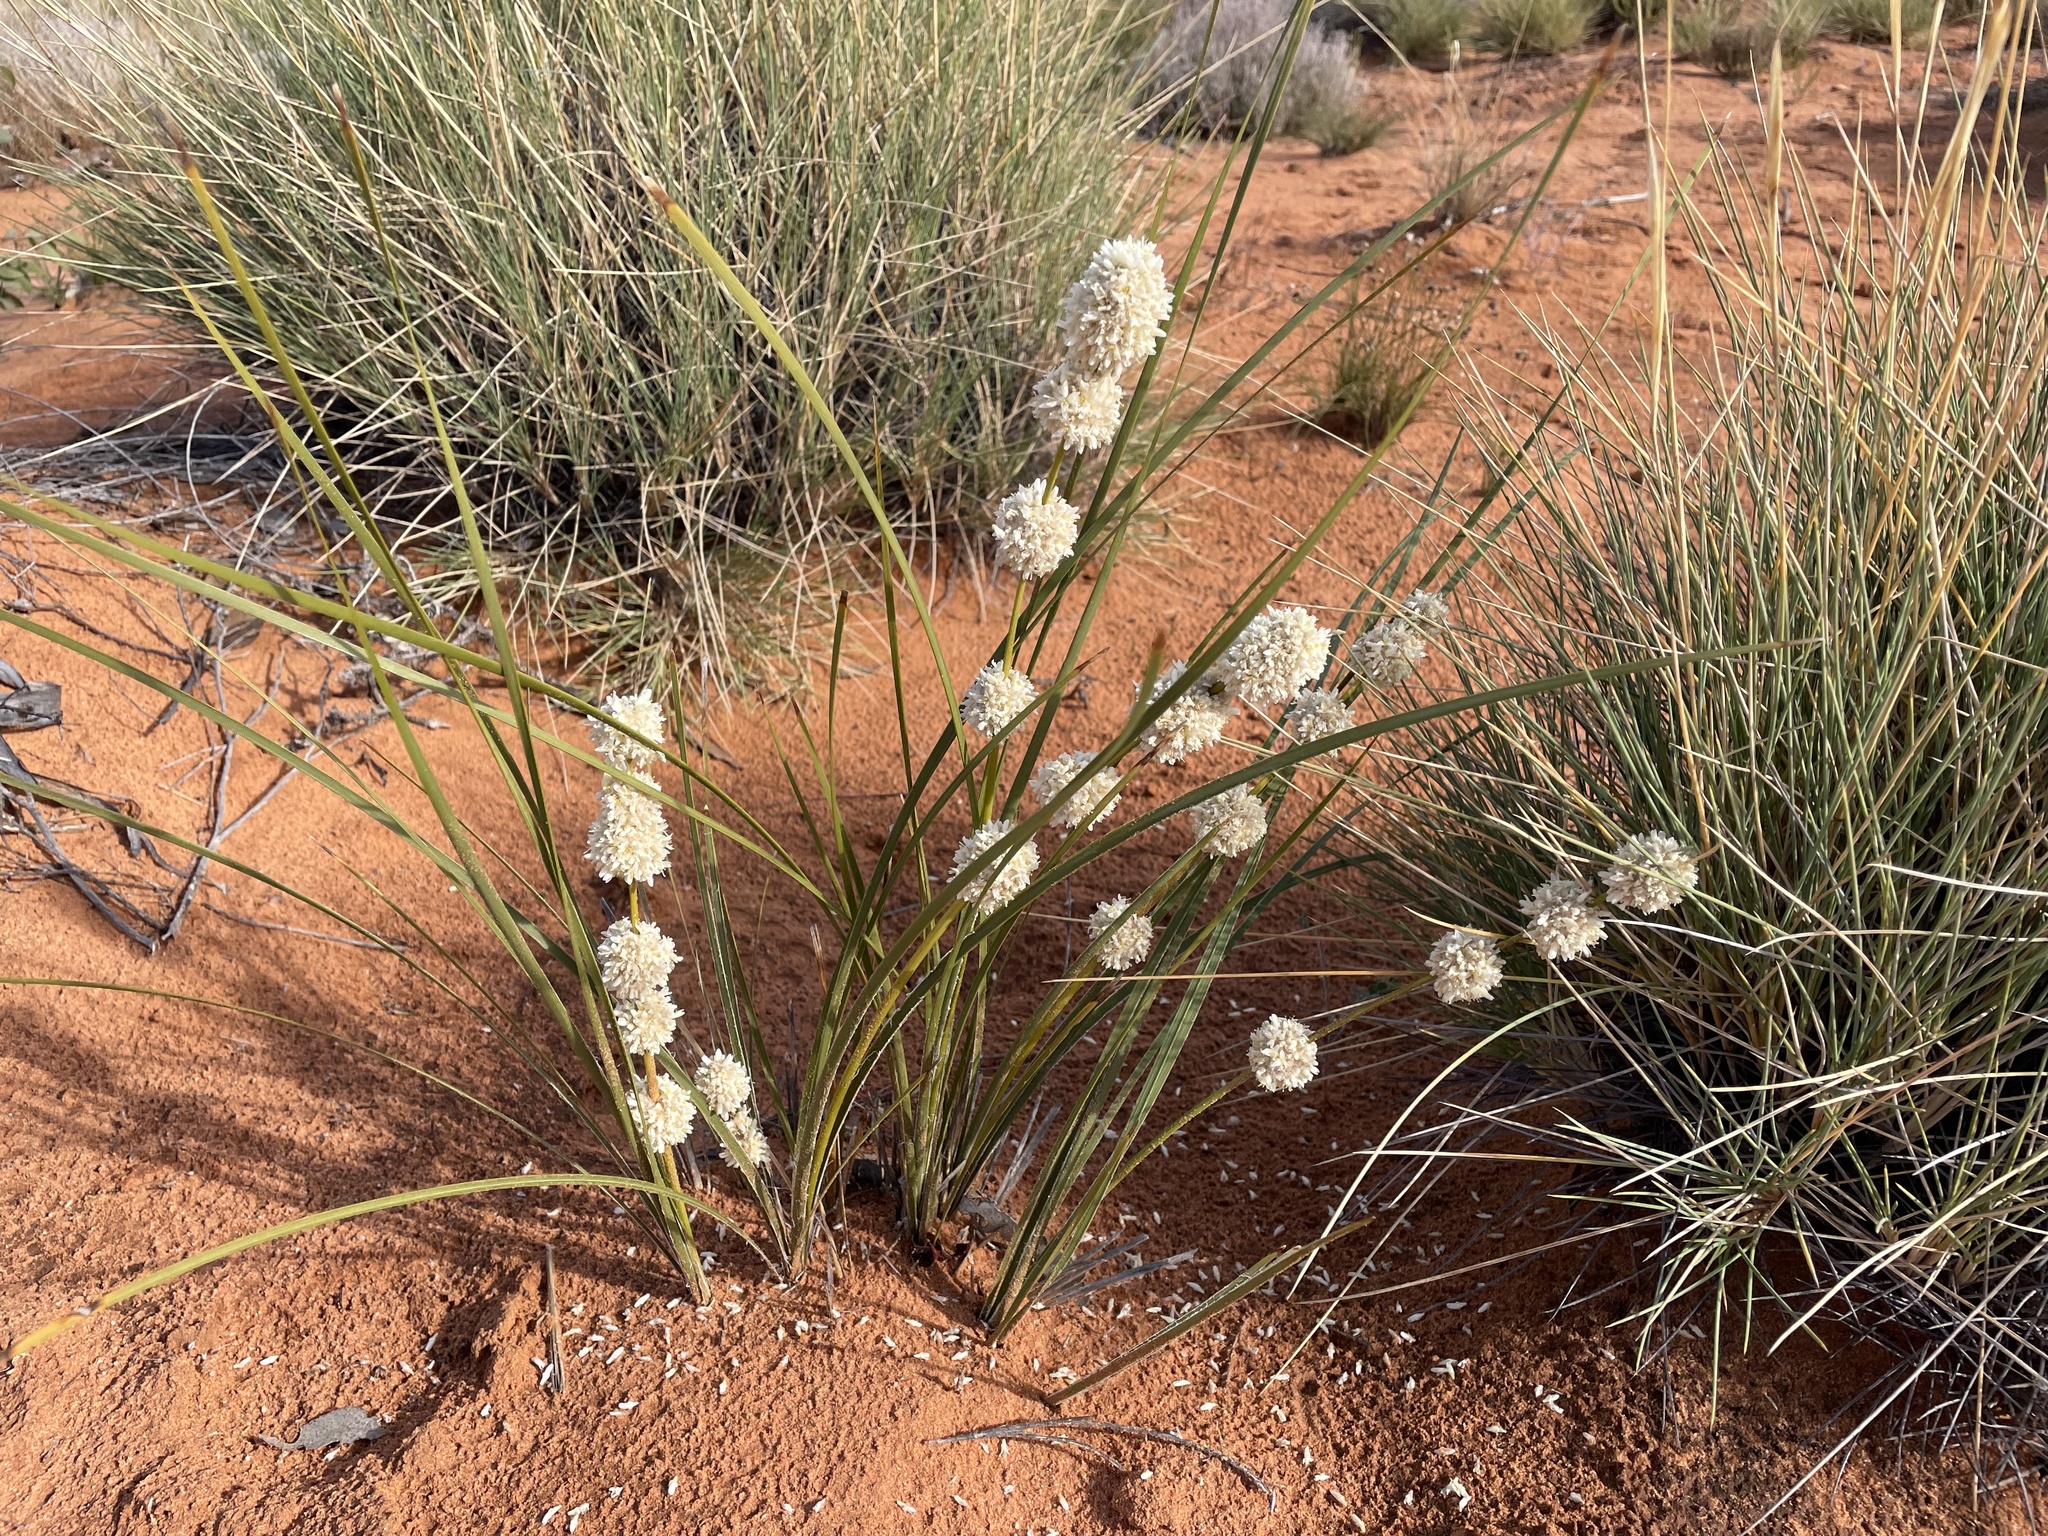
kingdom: Plantae
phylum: Tracheophyta
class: Liliopsida
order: Asparagales
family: Asparagaceae
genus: Lomandra
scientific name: Lomandra leucocephala
